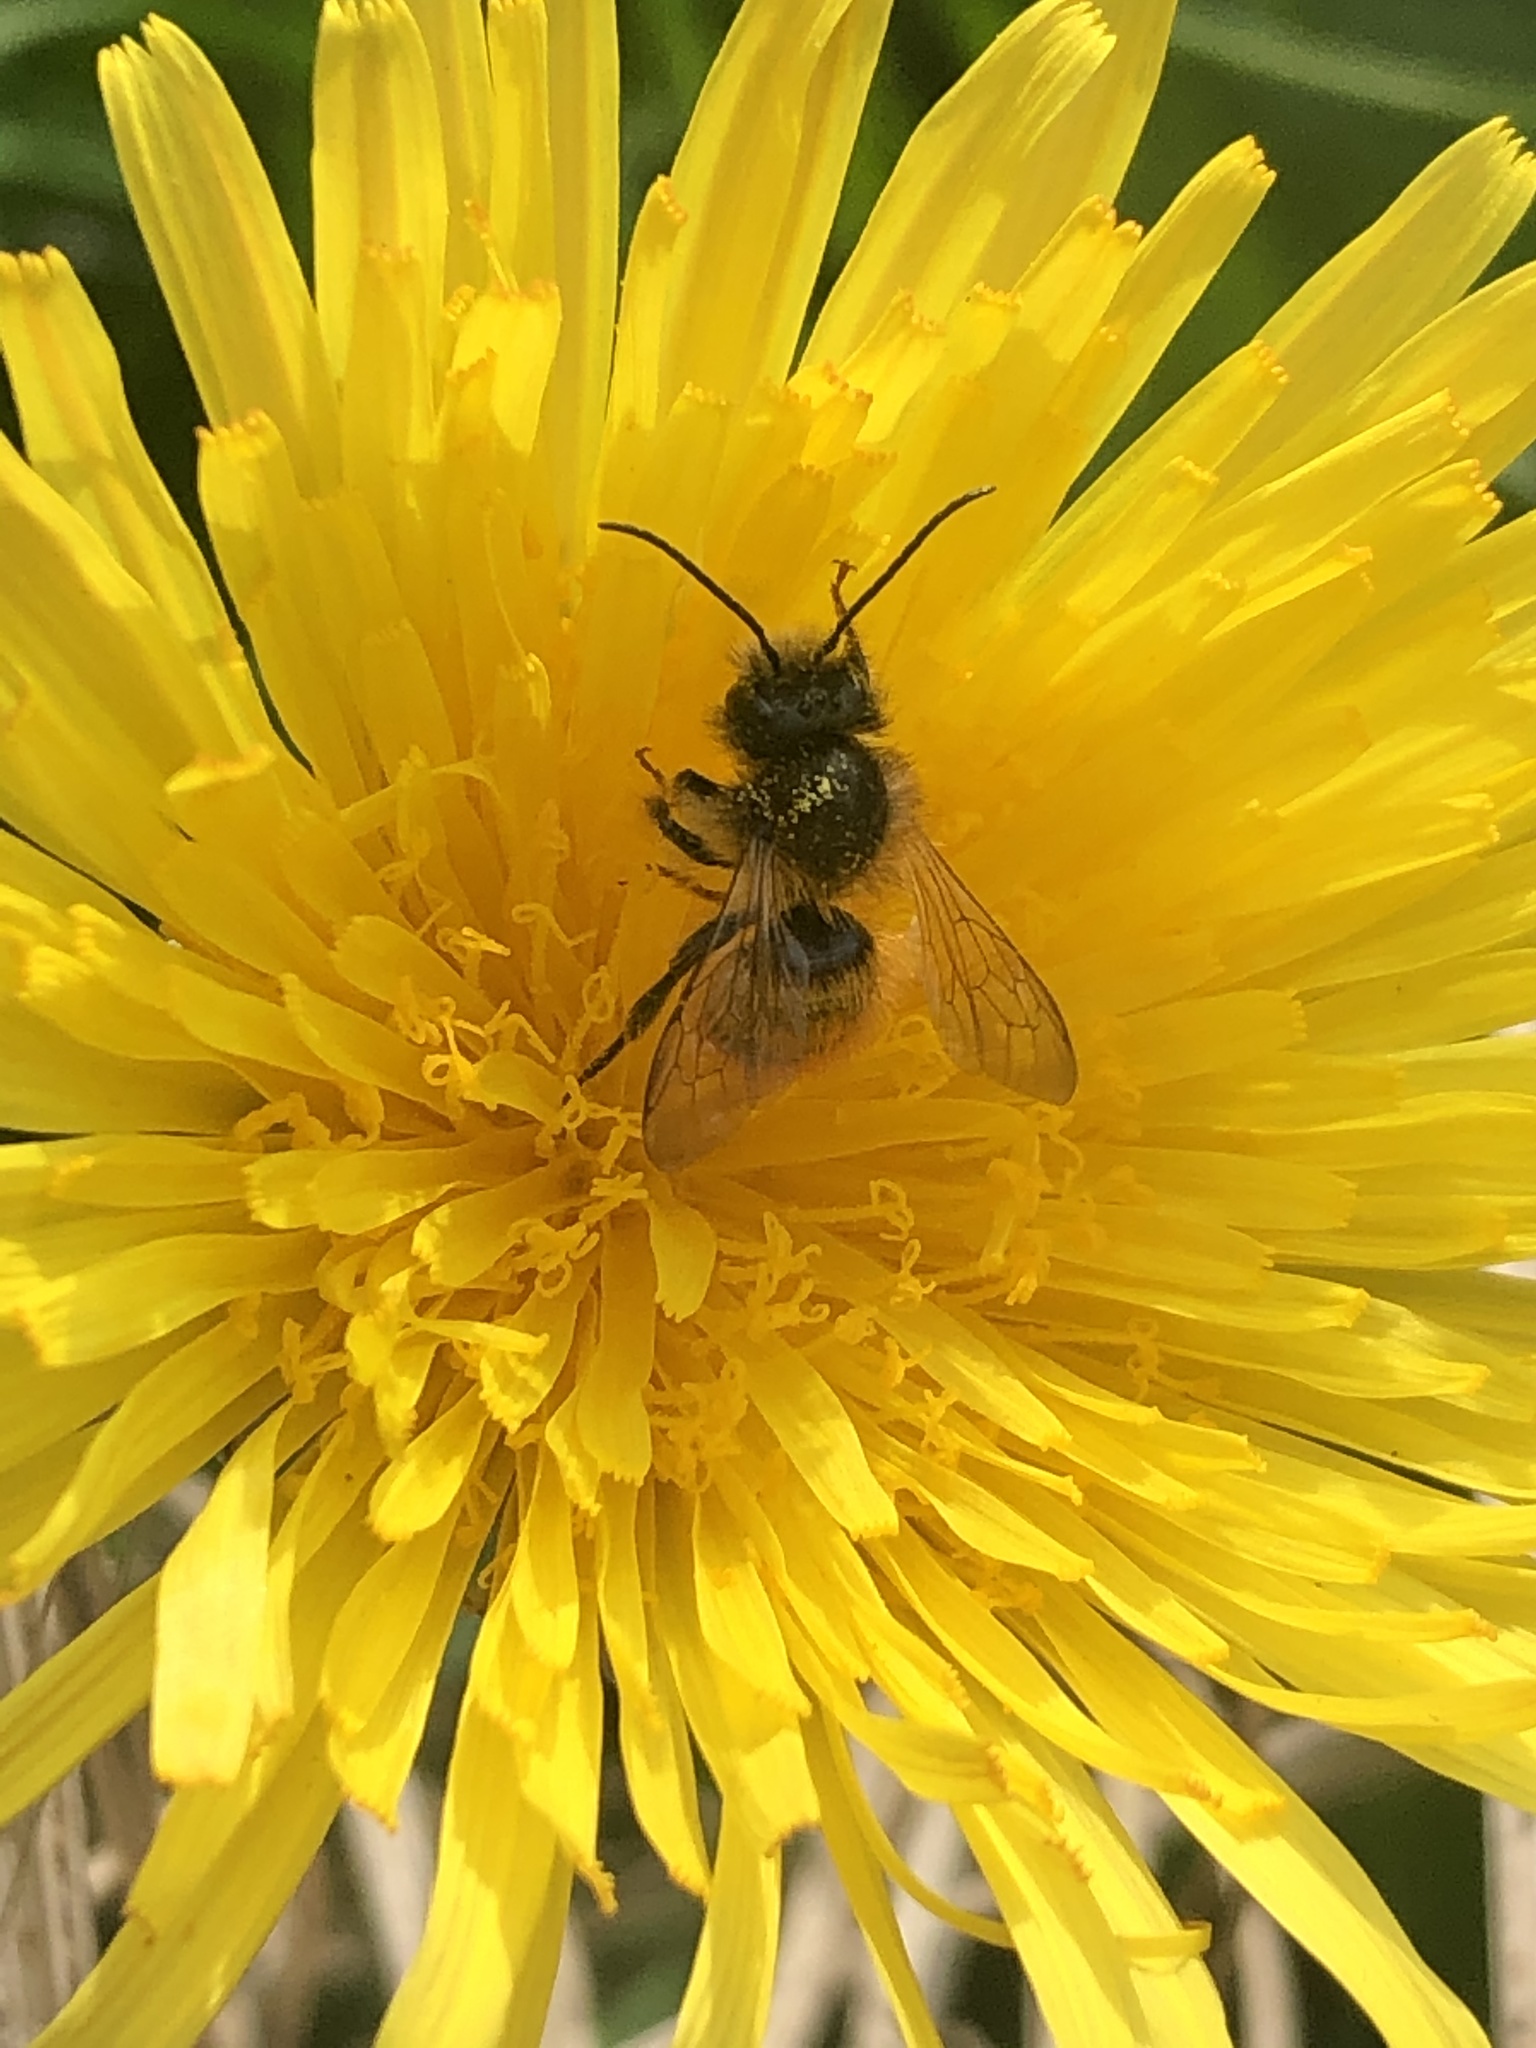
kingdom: Animalia
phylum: Arthropoda
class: Insecta
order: Hymenoptera
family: Megachilidae
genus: Osmia
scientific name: Osmia bicornis
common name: Red mason bee
